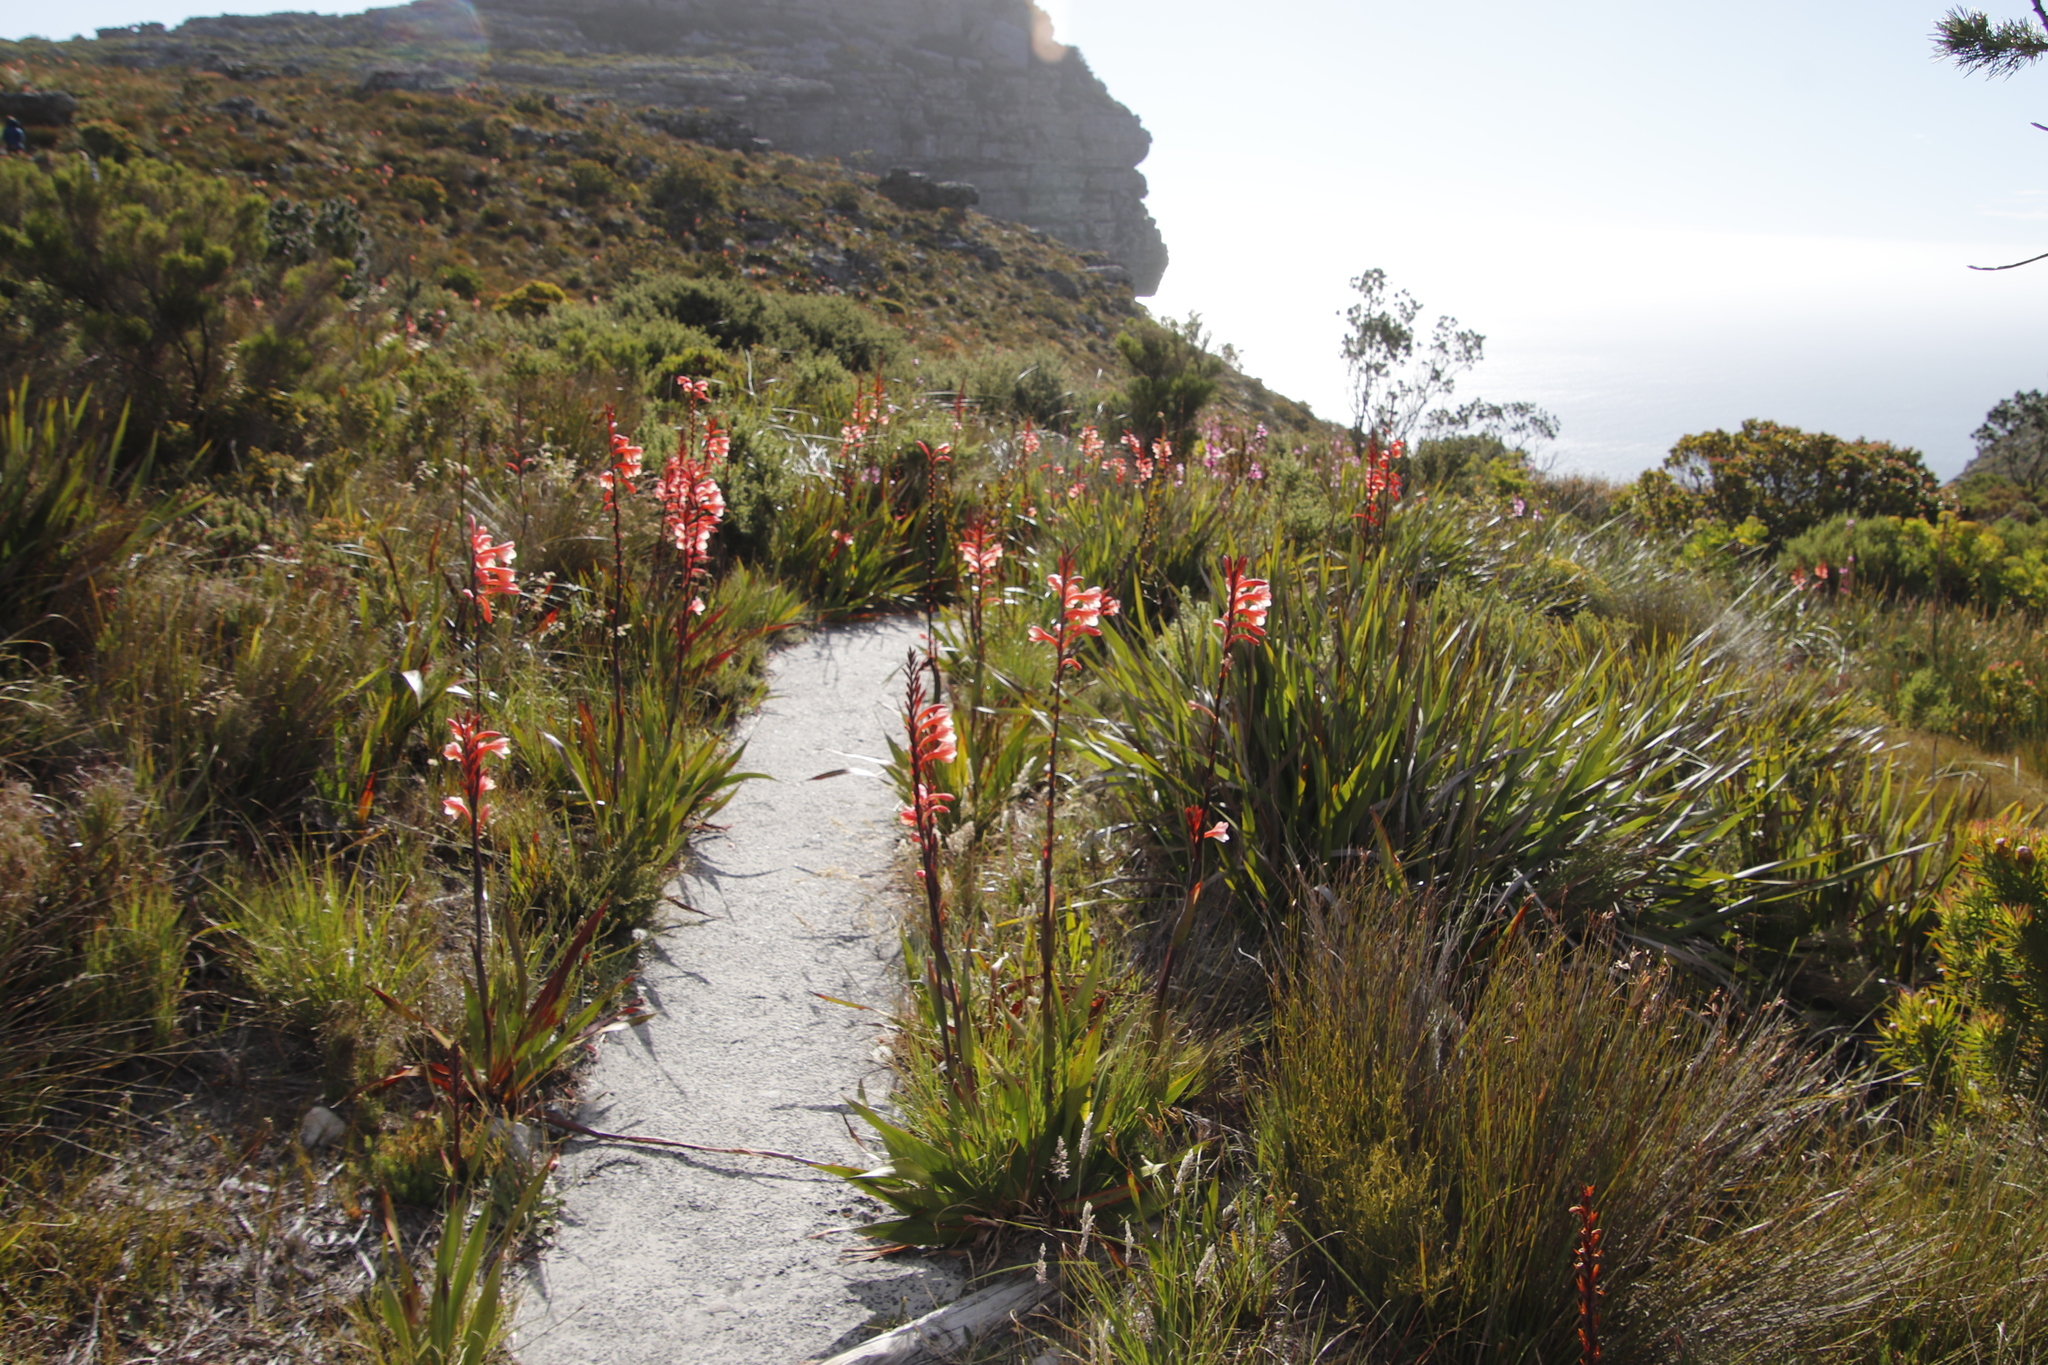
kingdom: Plantae
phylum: Tracheophyta
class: Liliopsida
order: Asparagales
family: Iridaceae
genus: Watsonia
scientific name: Watsonia tabularis
